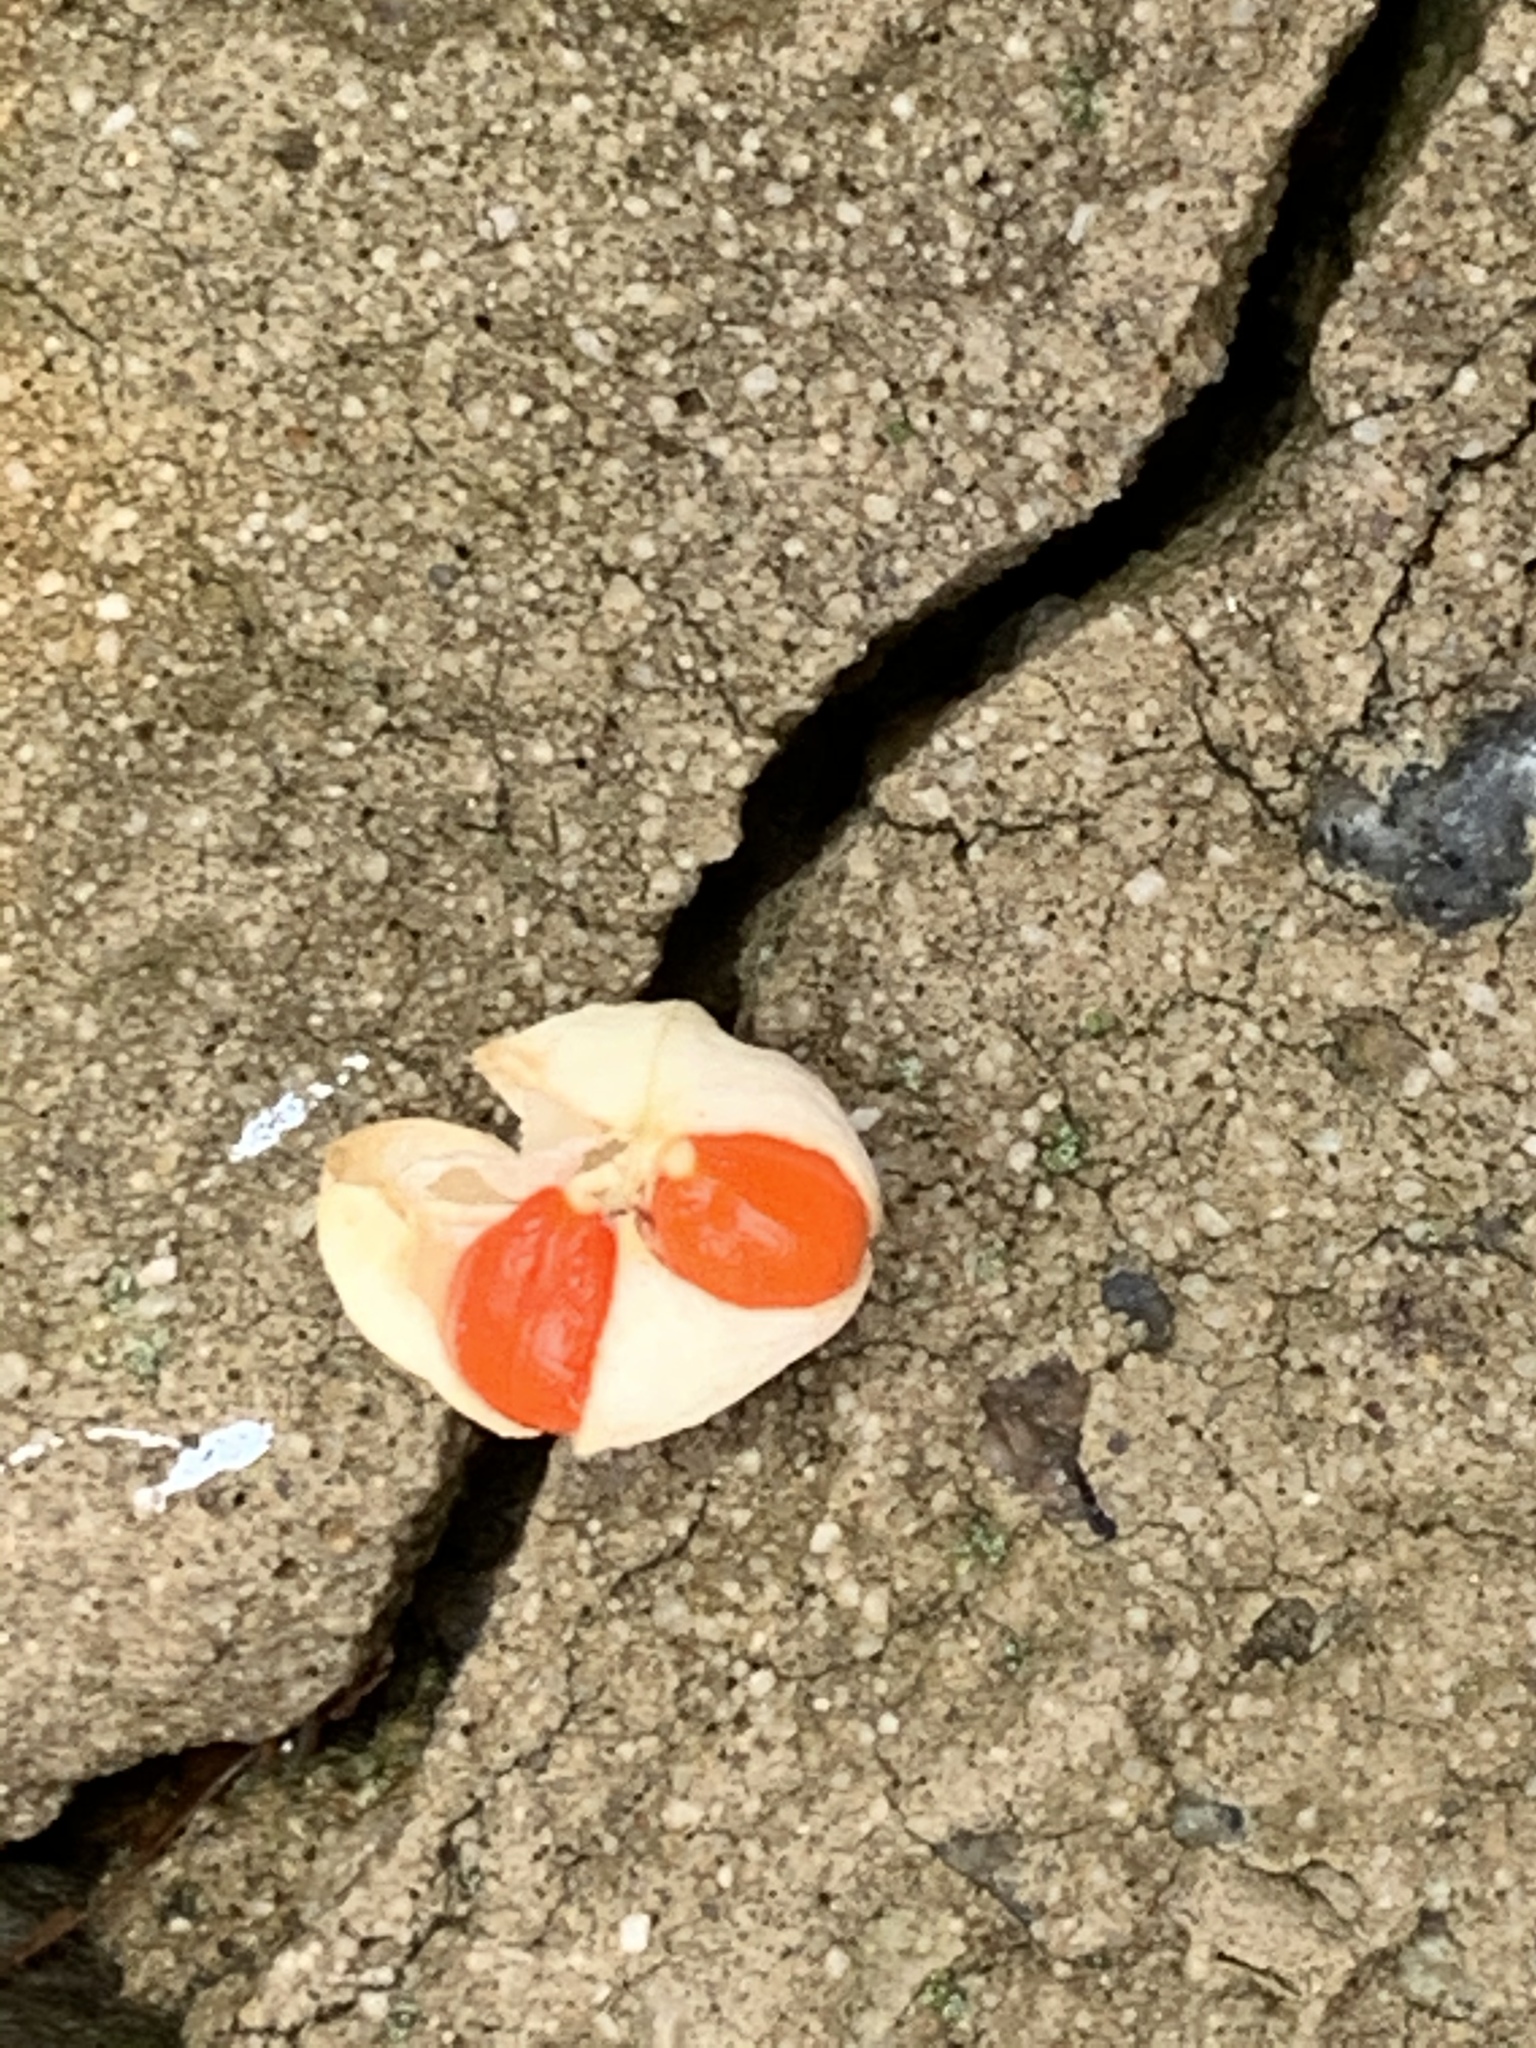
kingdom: Plantae
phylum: Tracheophyta
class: Magnoliopsida
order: Celastrales
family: Celastraceae
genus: Euonymus
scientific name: Euonymus fortunei
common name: Climbing euonymus
